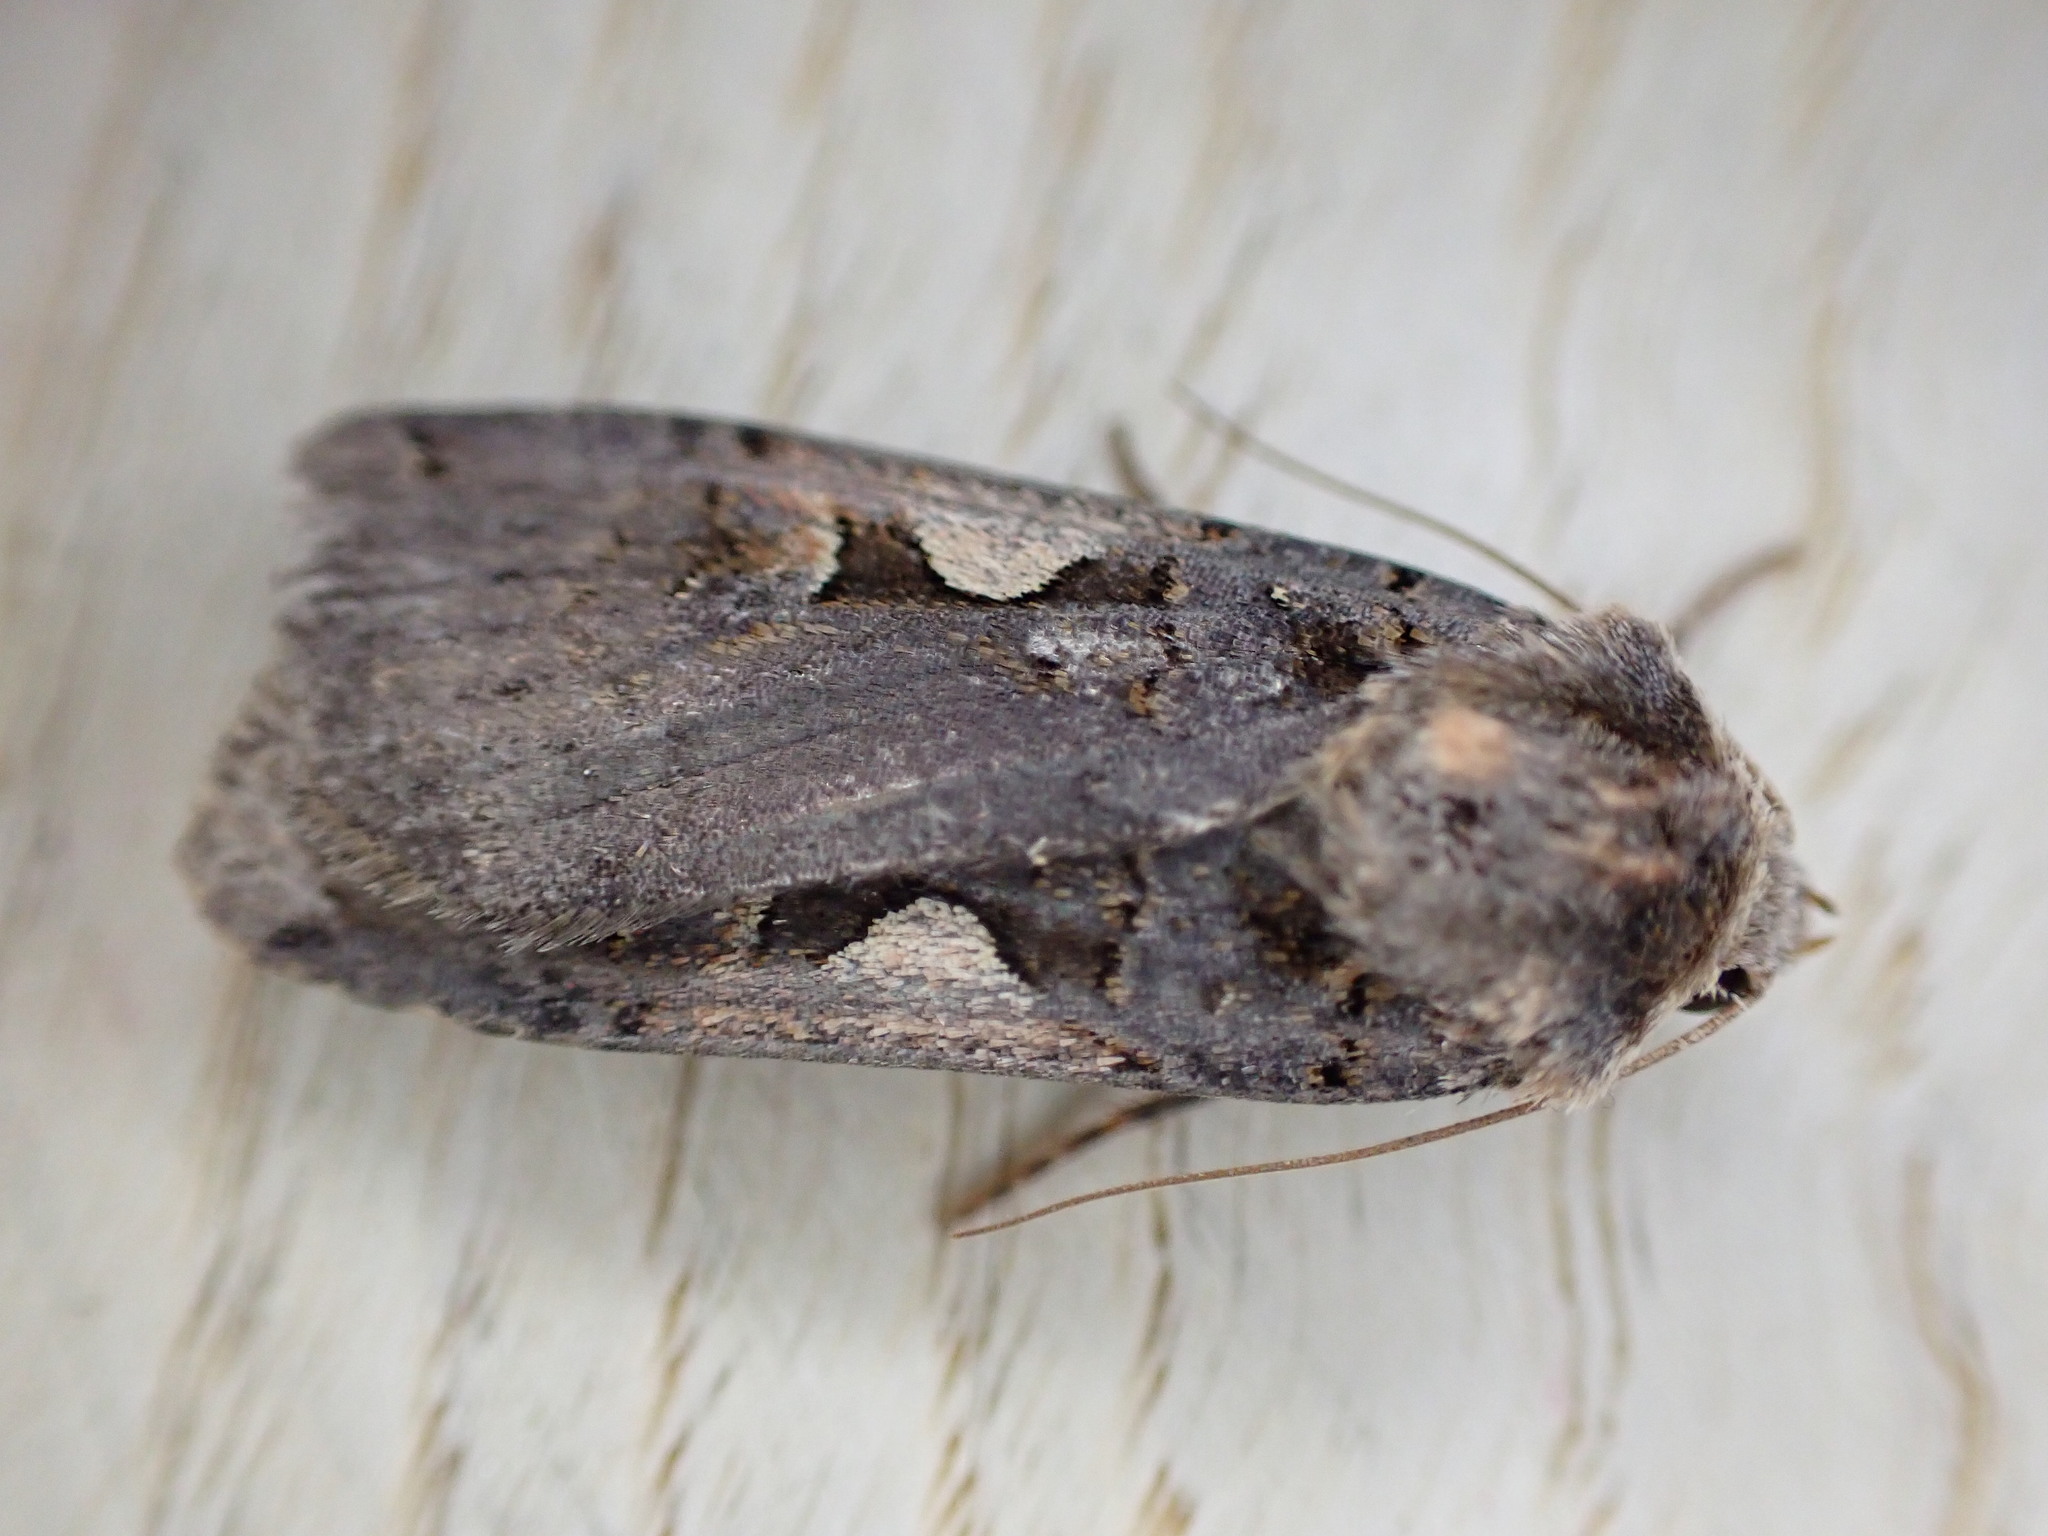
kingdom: Animalia
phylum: Arthropoda
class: Insecta
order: Lepidoptera
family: Noctuidae
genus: Xestia
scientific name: Xestia c-nigrum
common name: Setaceous hebrew character
